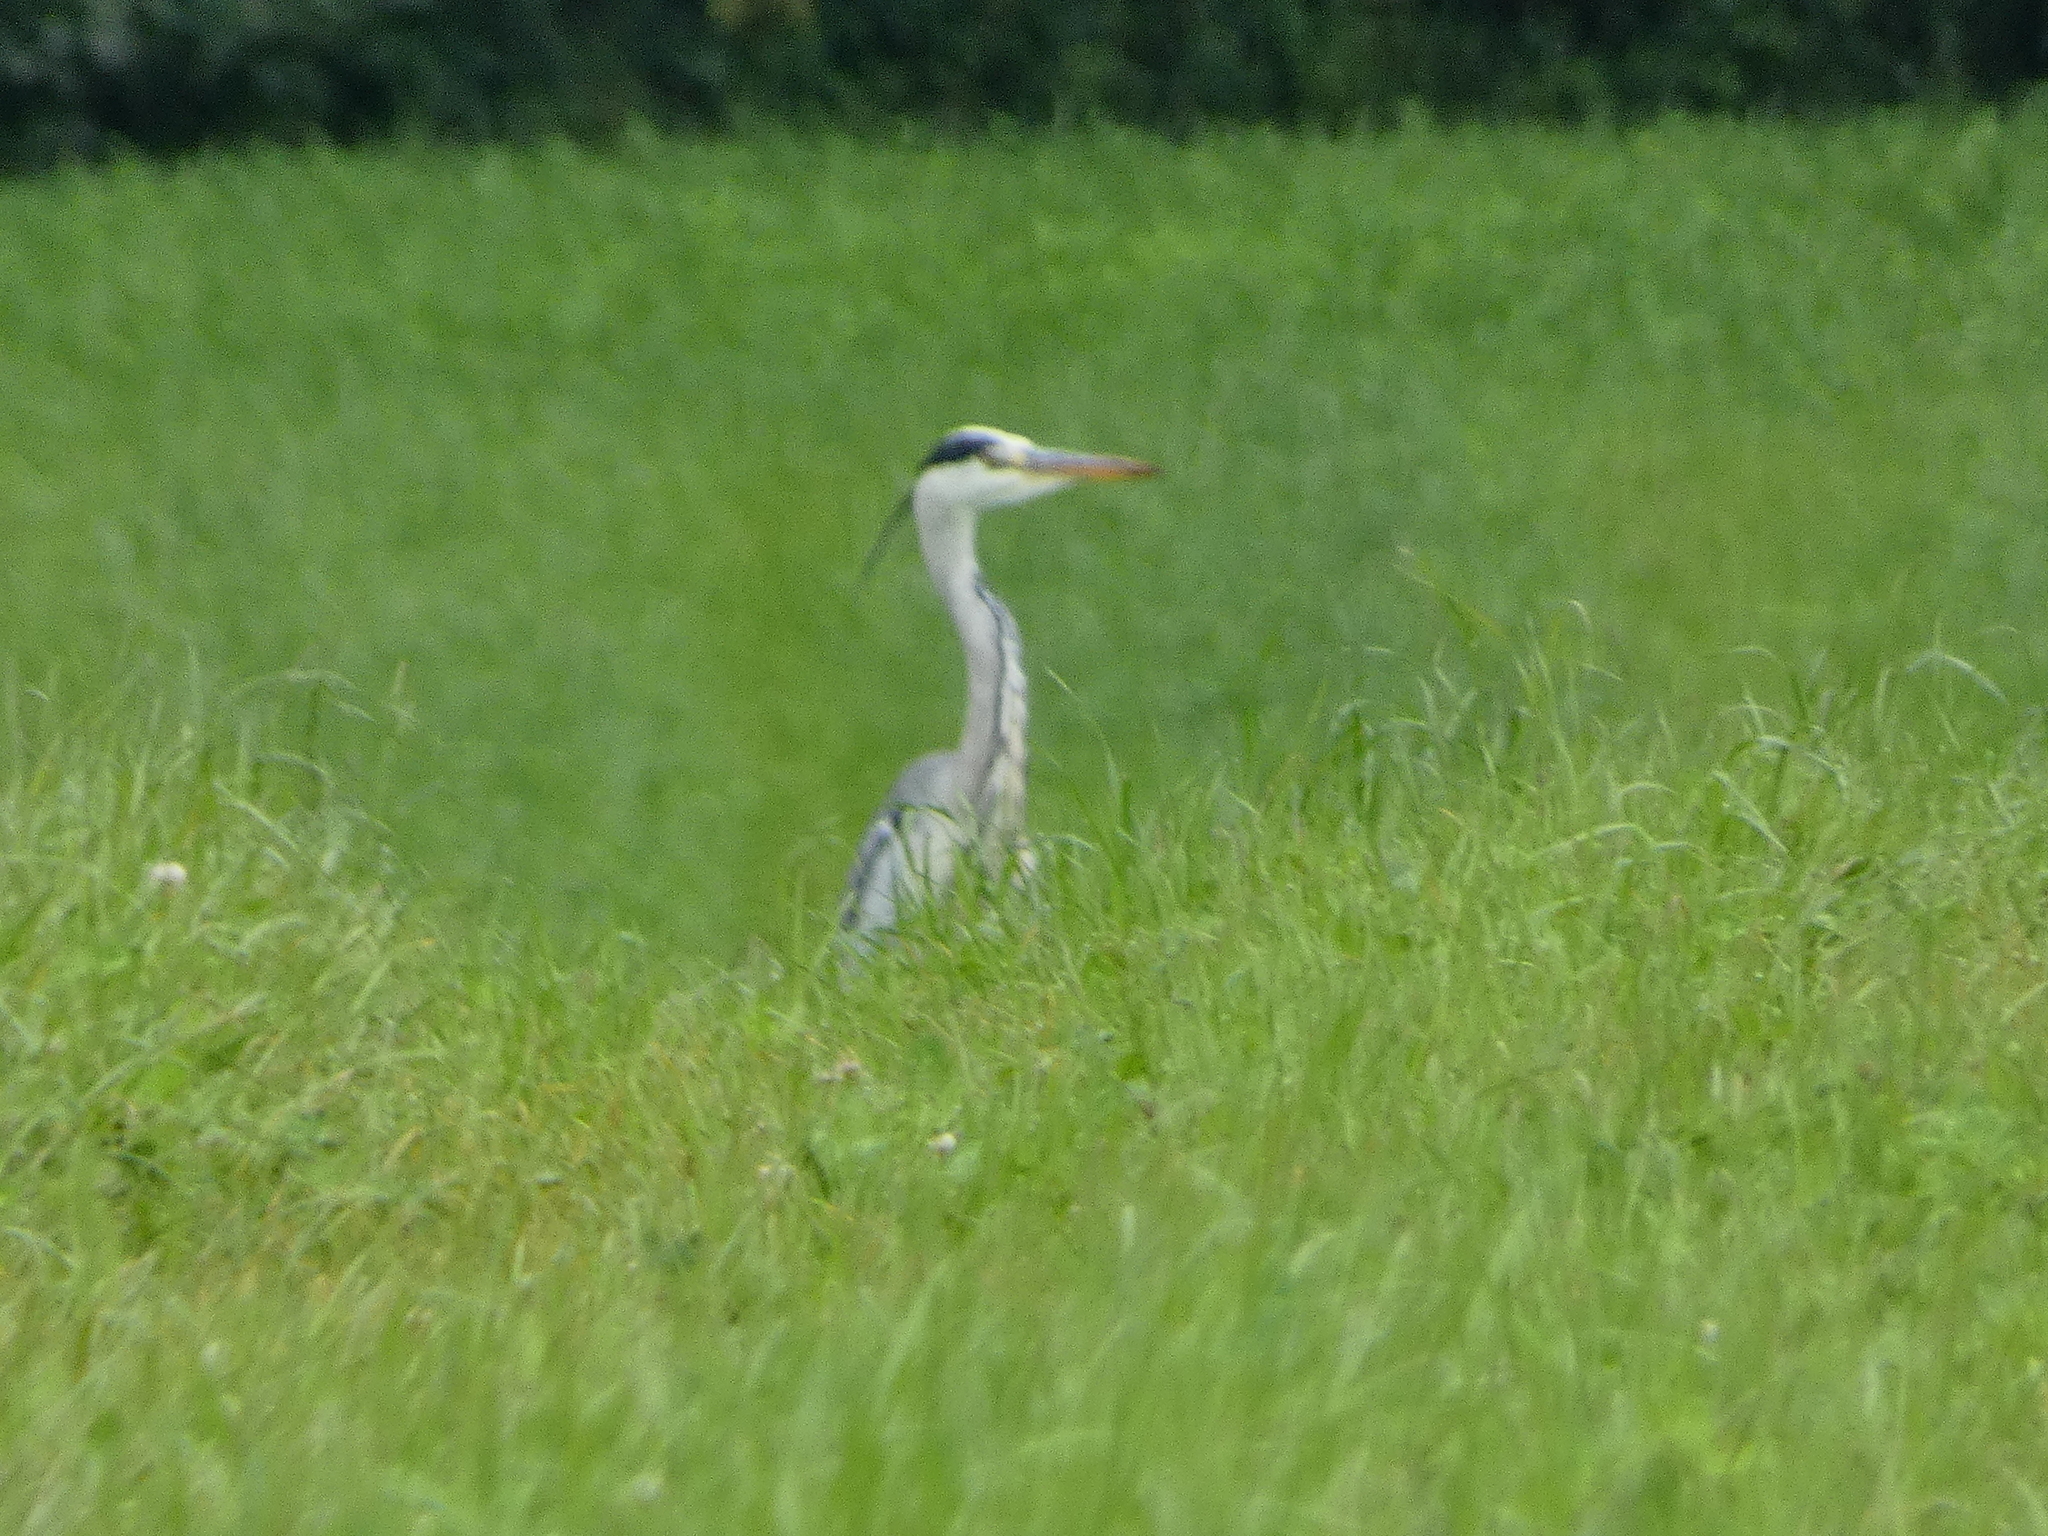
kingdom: Animalia
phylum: Chordata
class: Aves
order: Pelecaniformes
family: Ardeidae
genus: Ardea
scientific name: Ardea cinerea
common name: Grey heron
